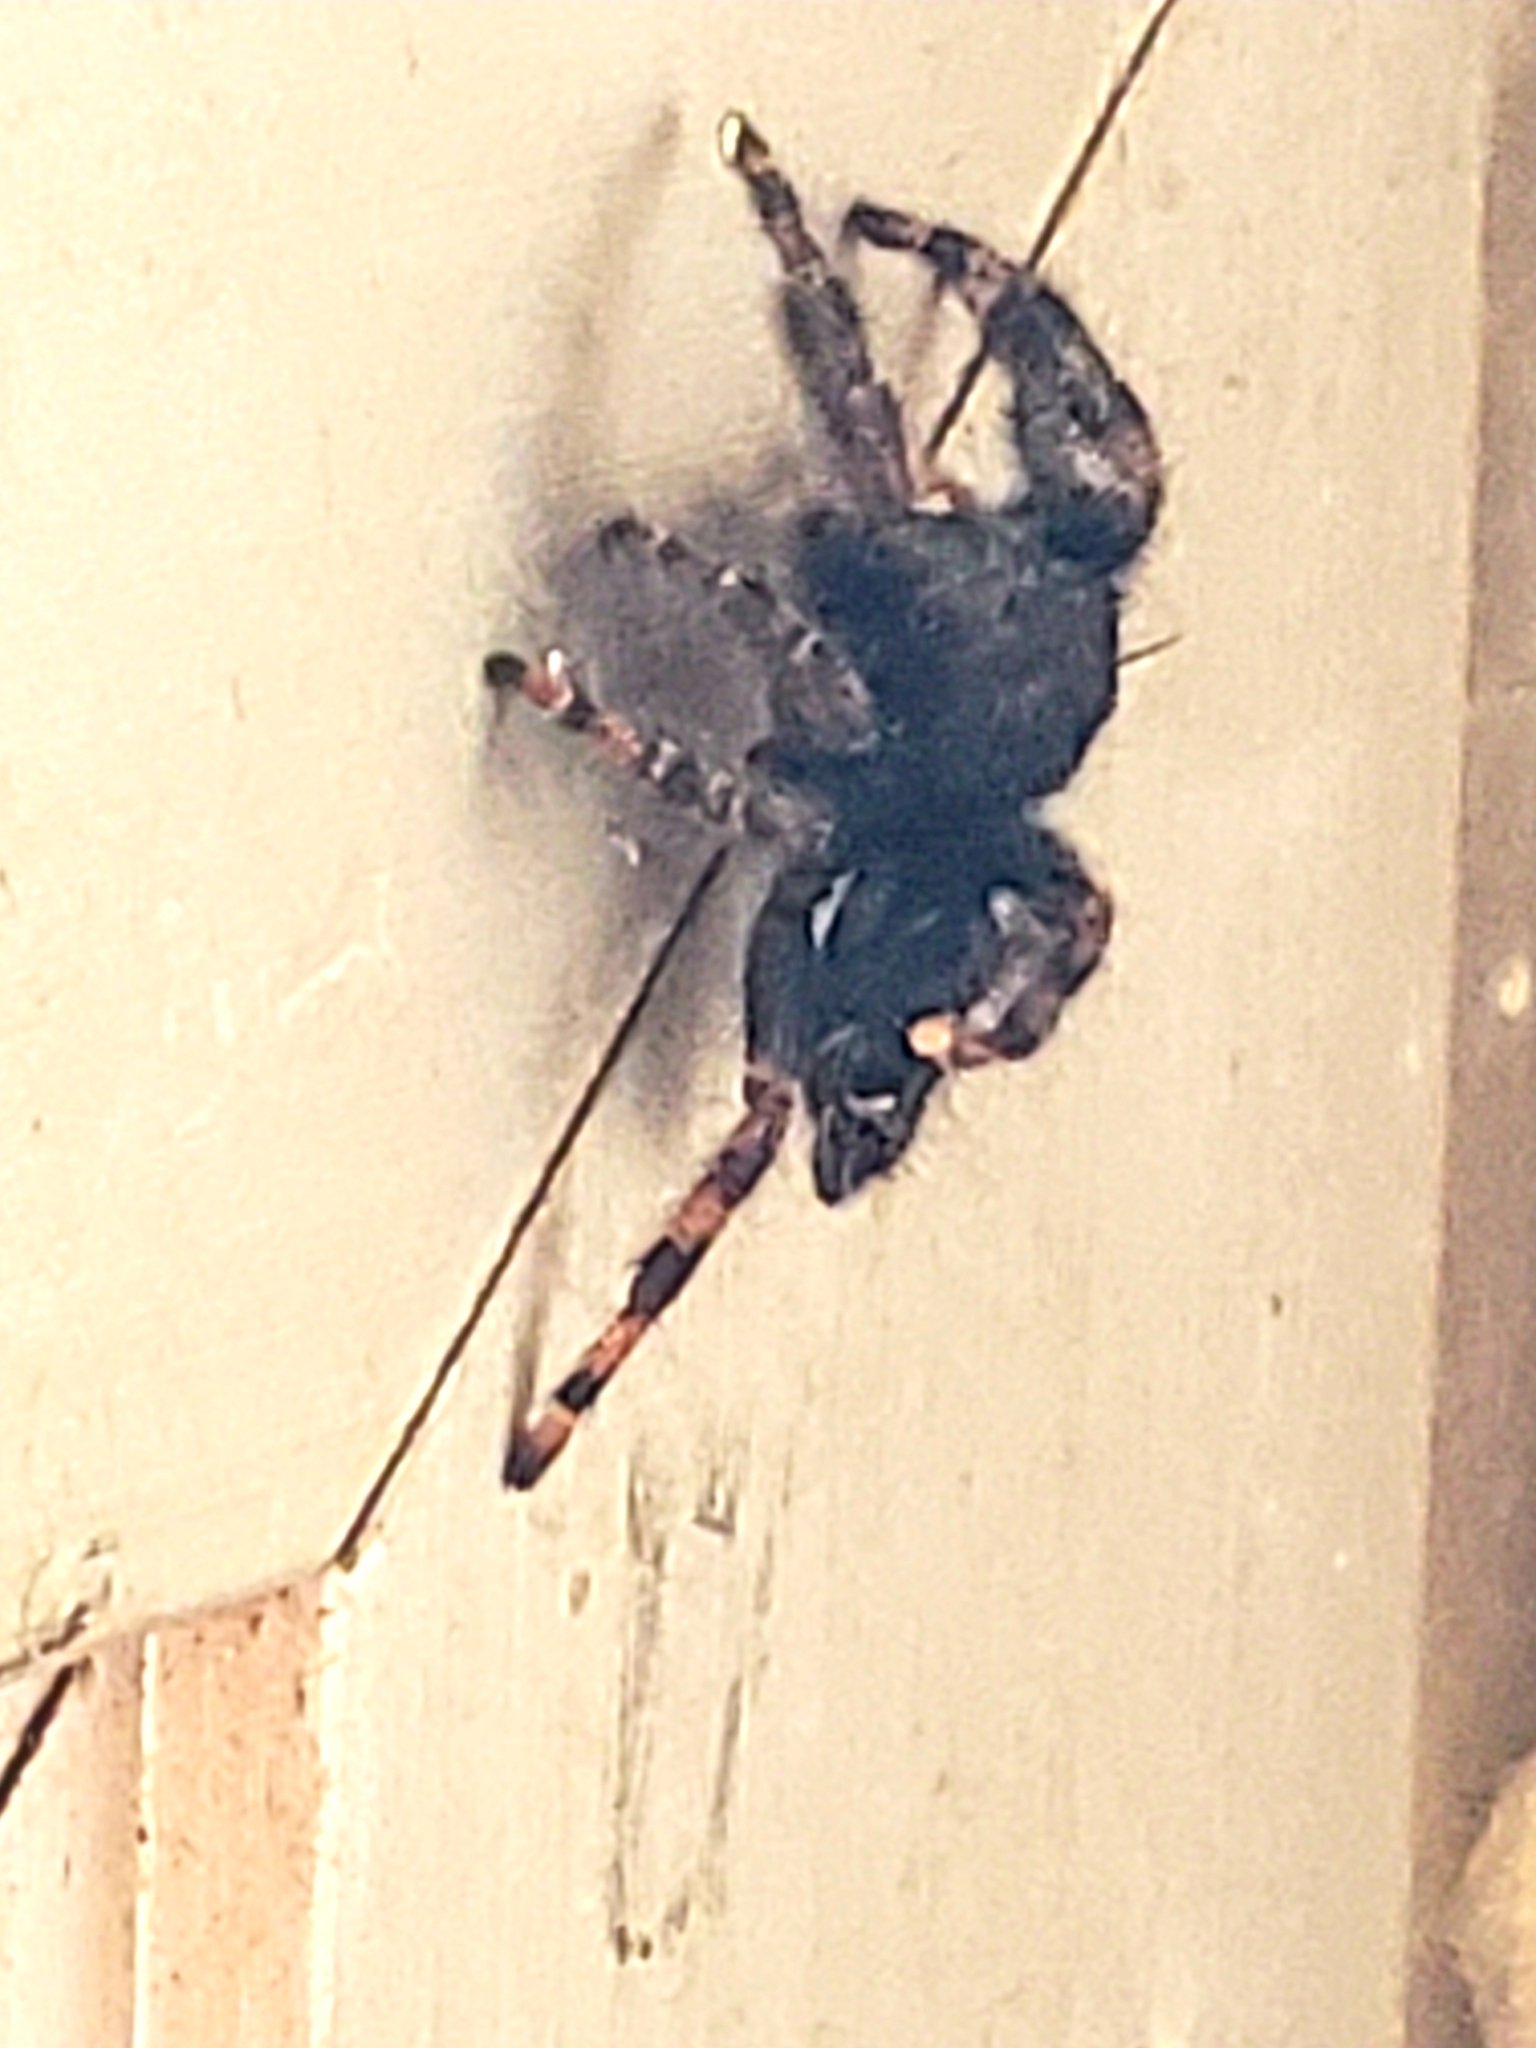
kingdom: Animalia
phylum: Arthropoda
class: Arachnida
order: Araneae
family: Salticidae
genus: Phidippus
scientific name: Phidippus audax
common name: Bold jumper
